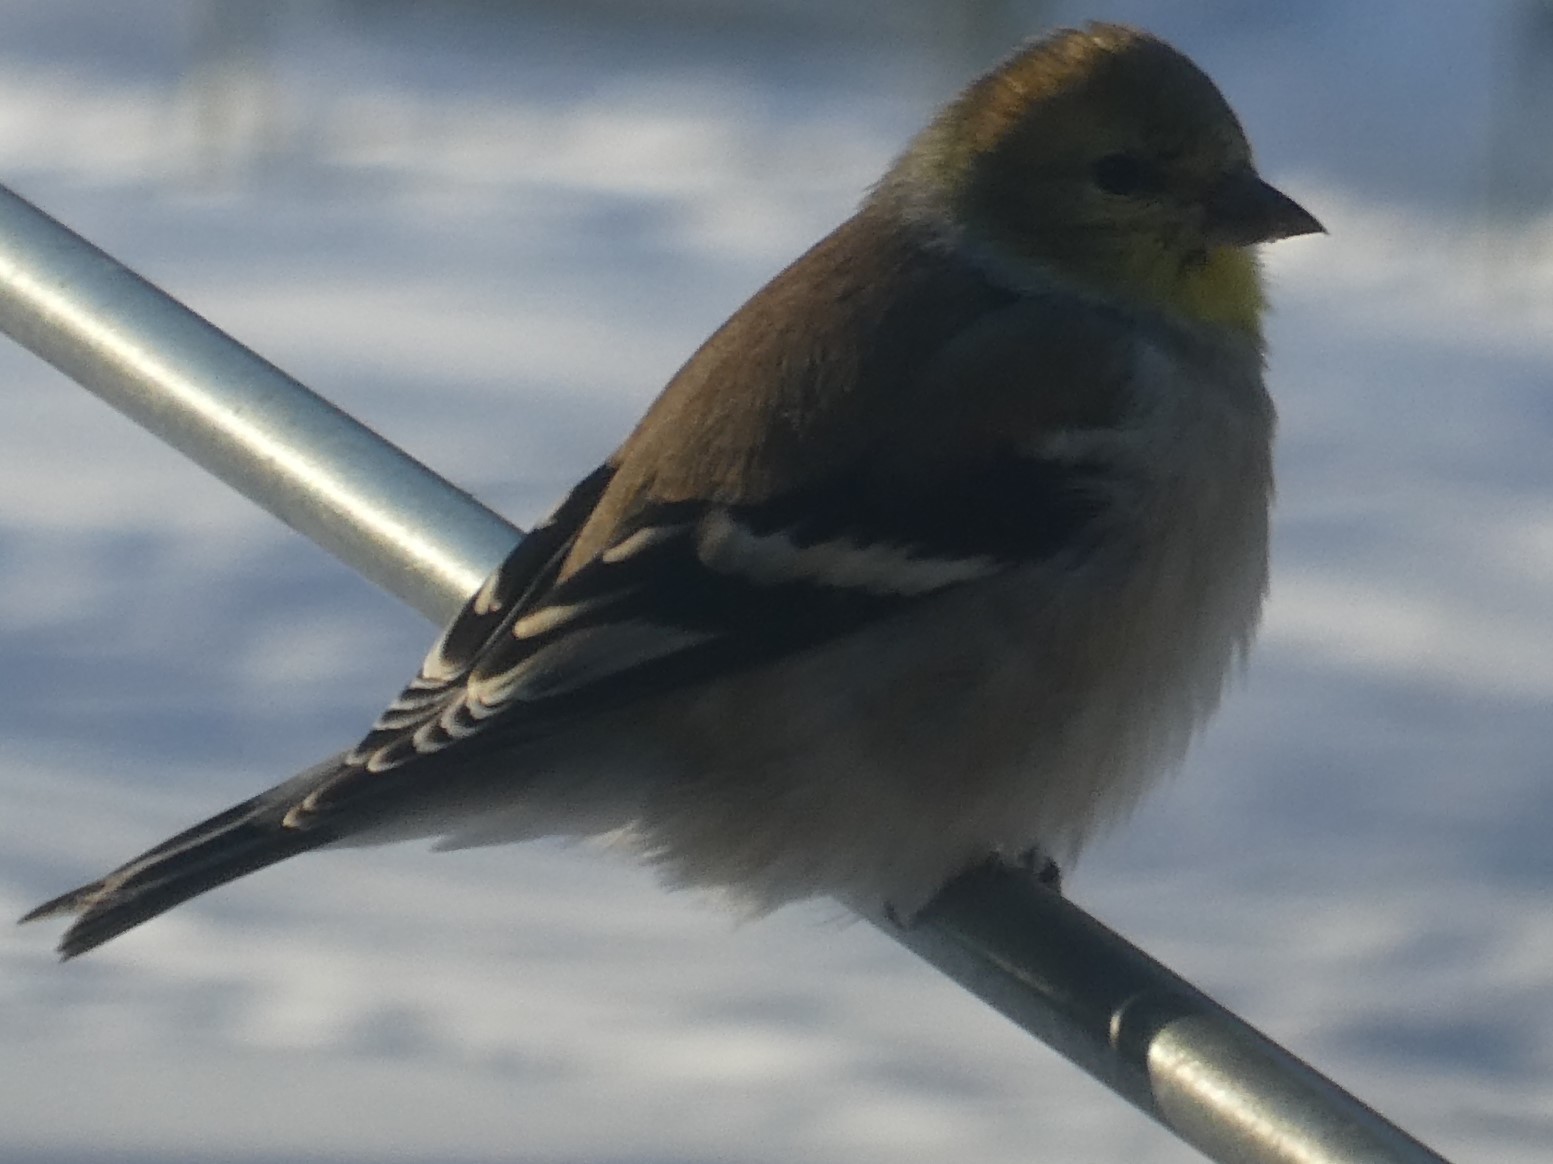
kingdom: Animalia
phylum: Chordata
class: Aves
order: Passeriformes
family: Fringillidae
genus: Spinus
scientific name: Spinus tristis
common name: American goldfinch
